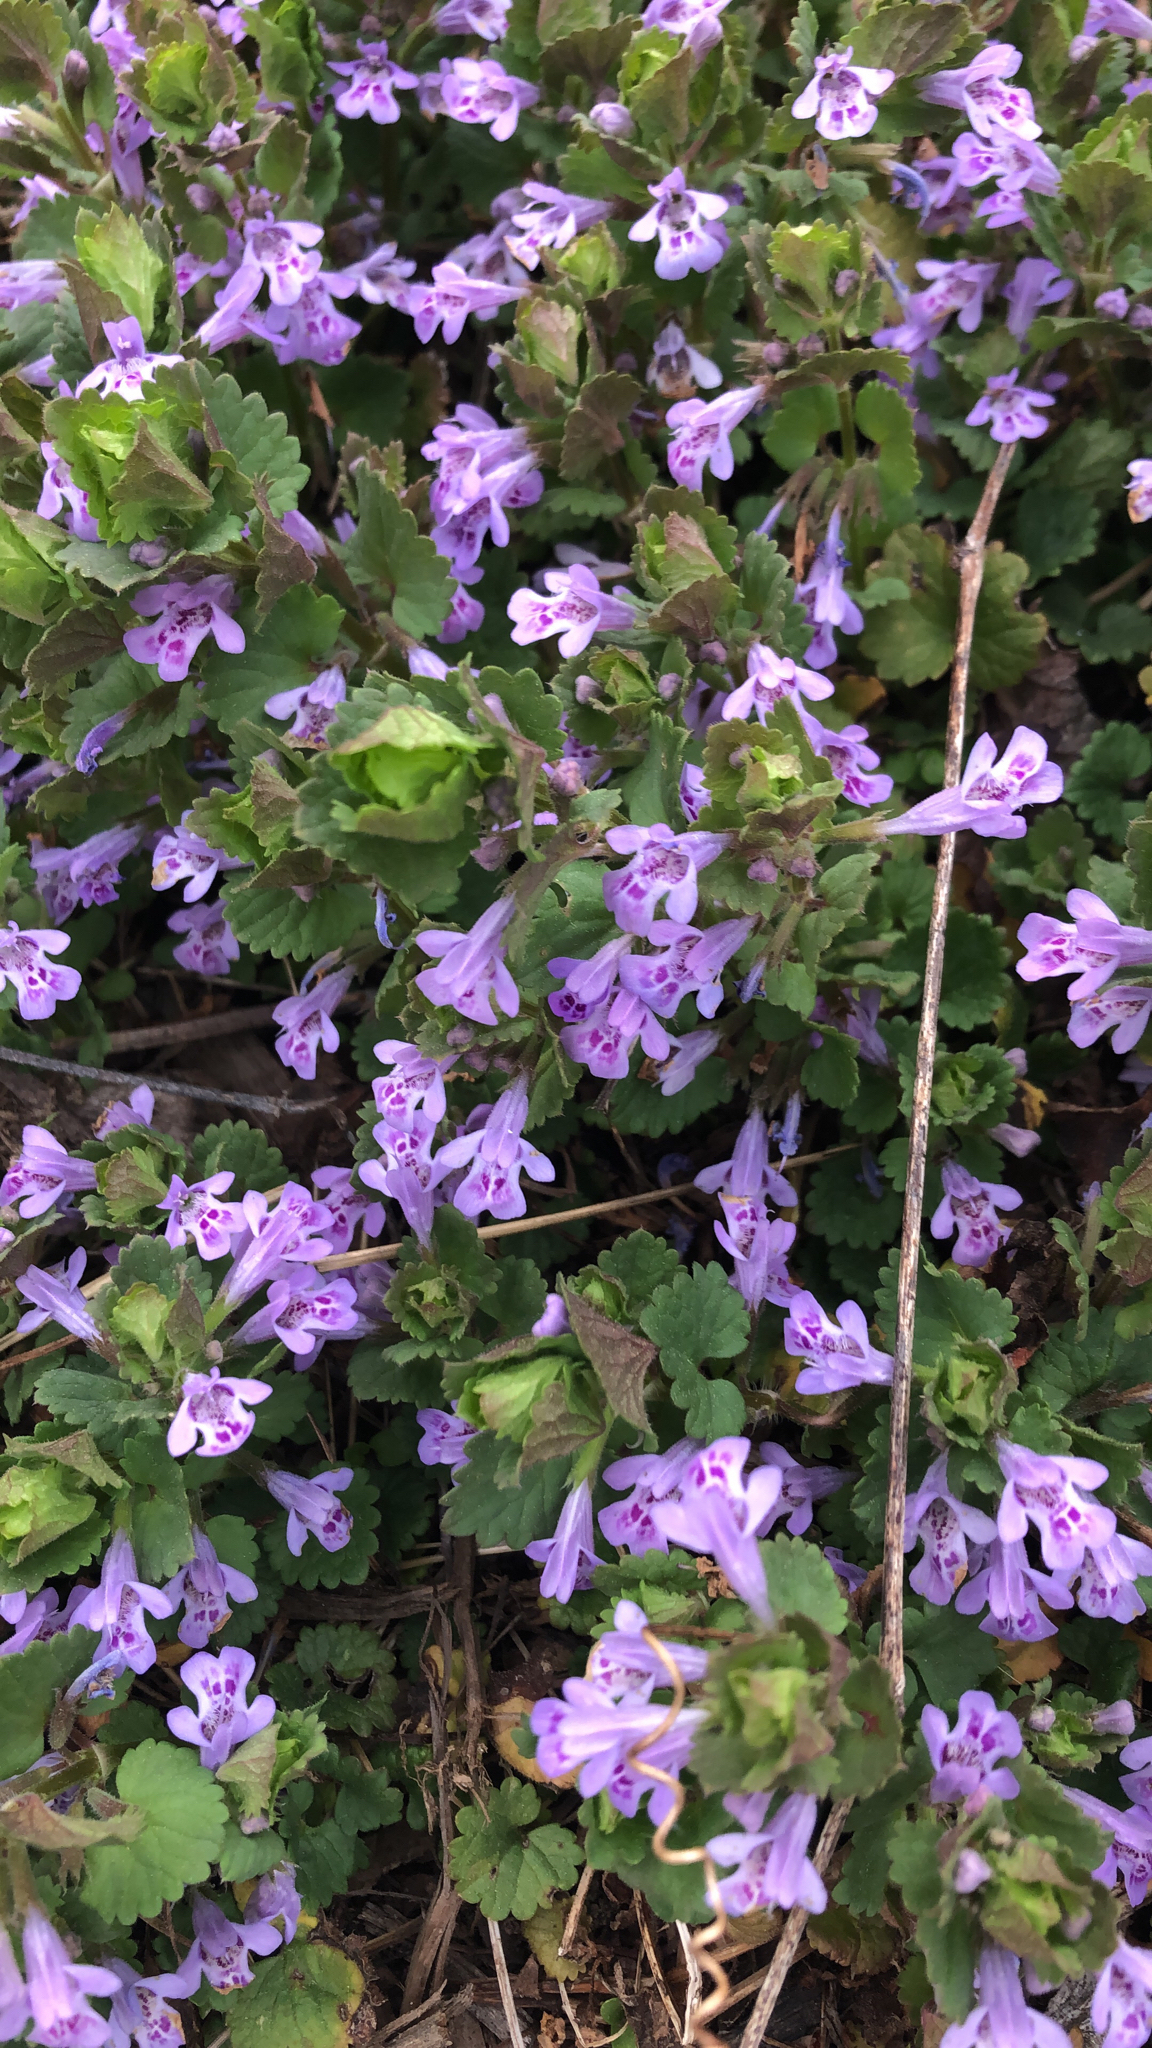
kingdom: Plantae
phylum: Tracheophyta
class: Magnoliopsida
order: Lamiales
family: Lamiaceae
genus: Glechoma
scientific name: Glechoma hederacea
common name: Ground ivy
